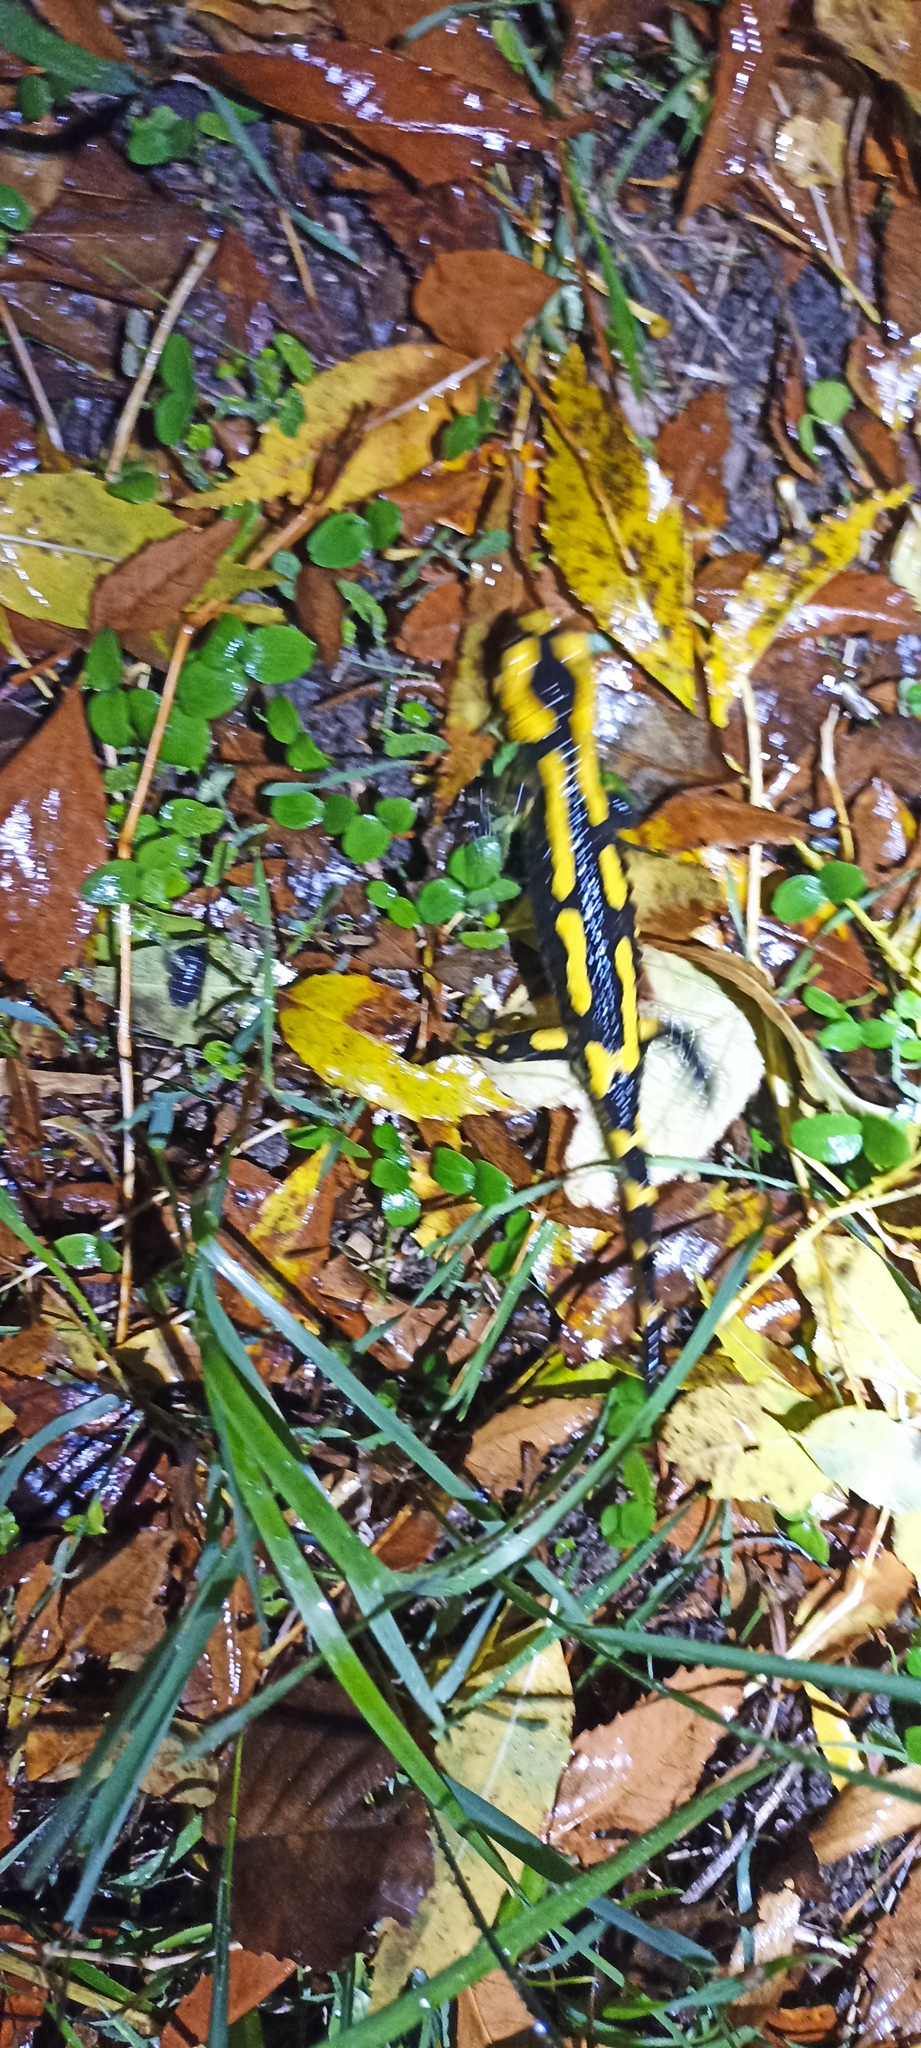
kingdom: Animalia
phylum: Chordata
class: Amphibia
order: Caudata
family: Salamandridae
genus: Salamandra
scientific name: Salamandra salamandra
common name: Fire salamander
